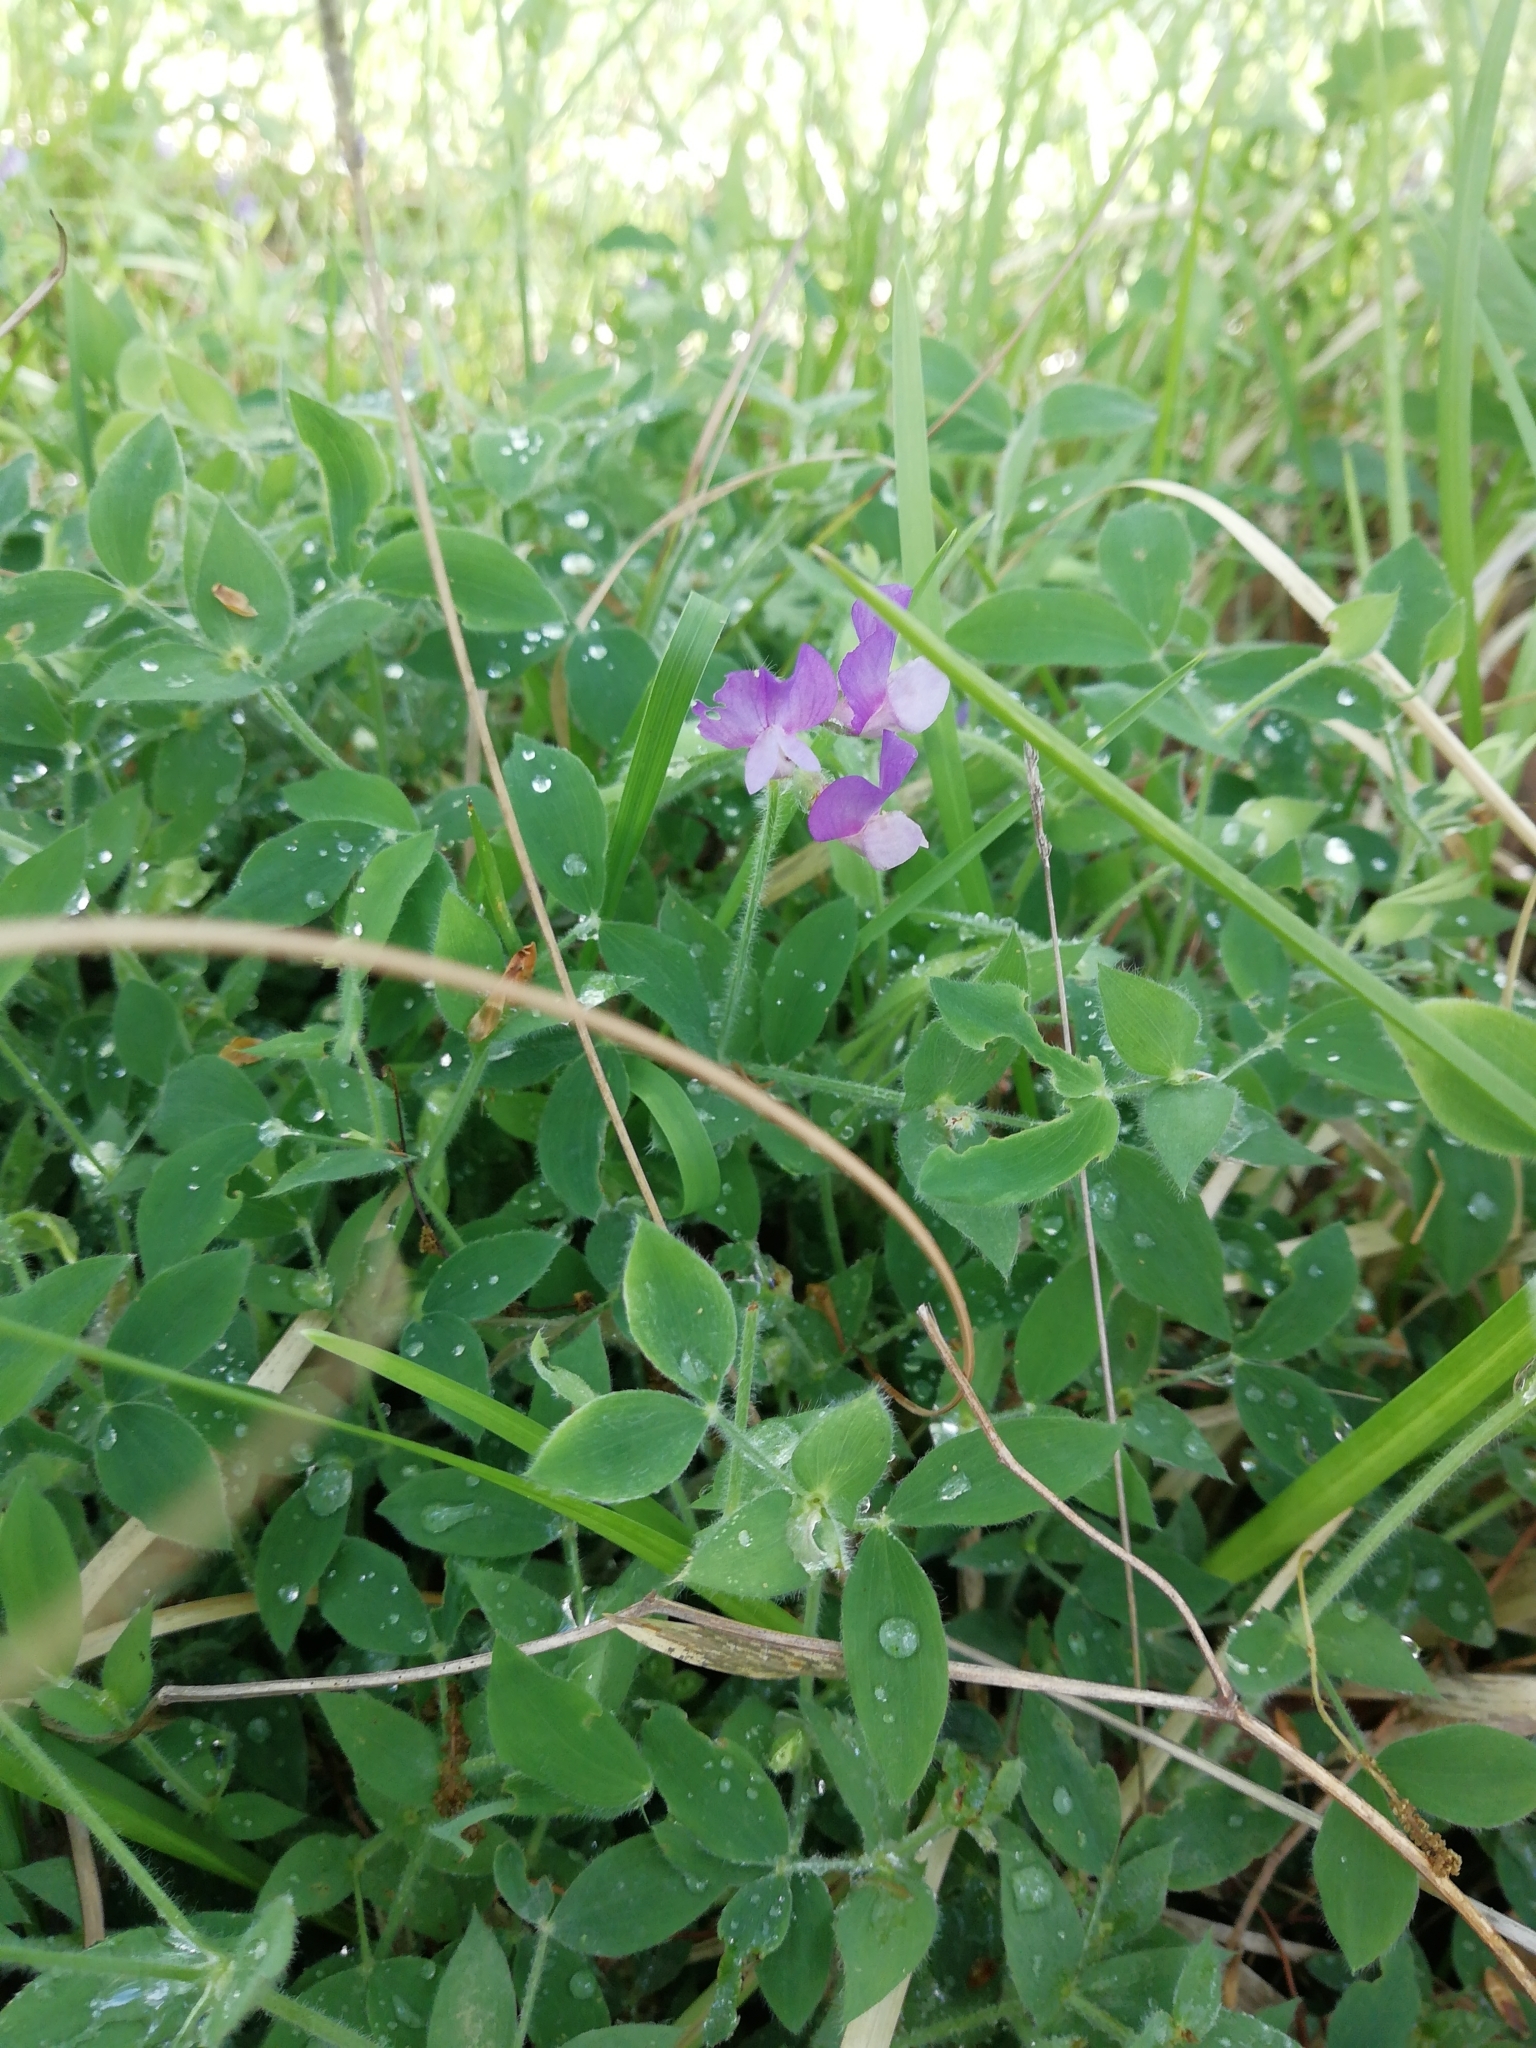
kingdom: Plantae
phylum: Tracheophyta
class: Magnoliopsida
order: Fabales
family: Fabaceae
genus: Lathyrus
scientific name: Lathyrus laxiflorus
